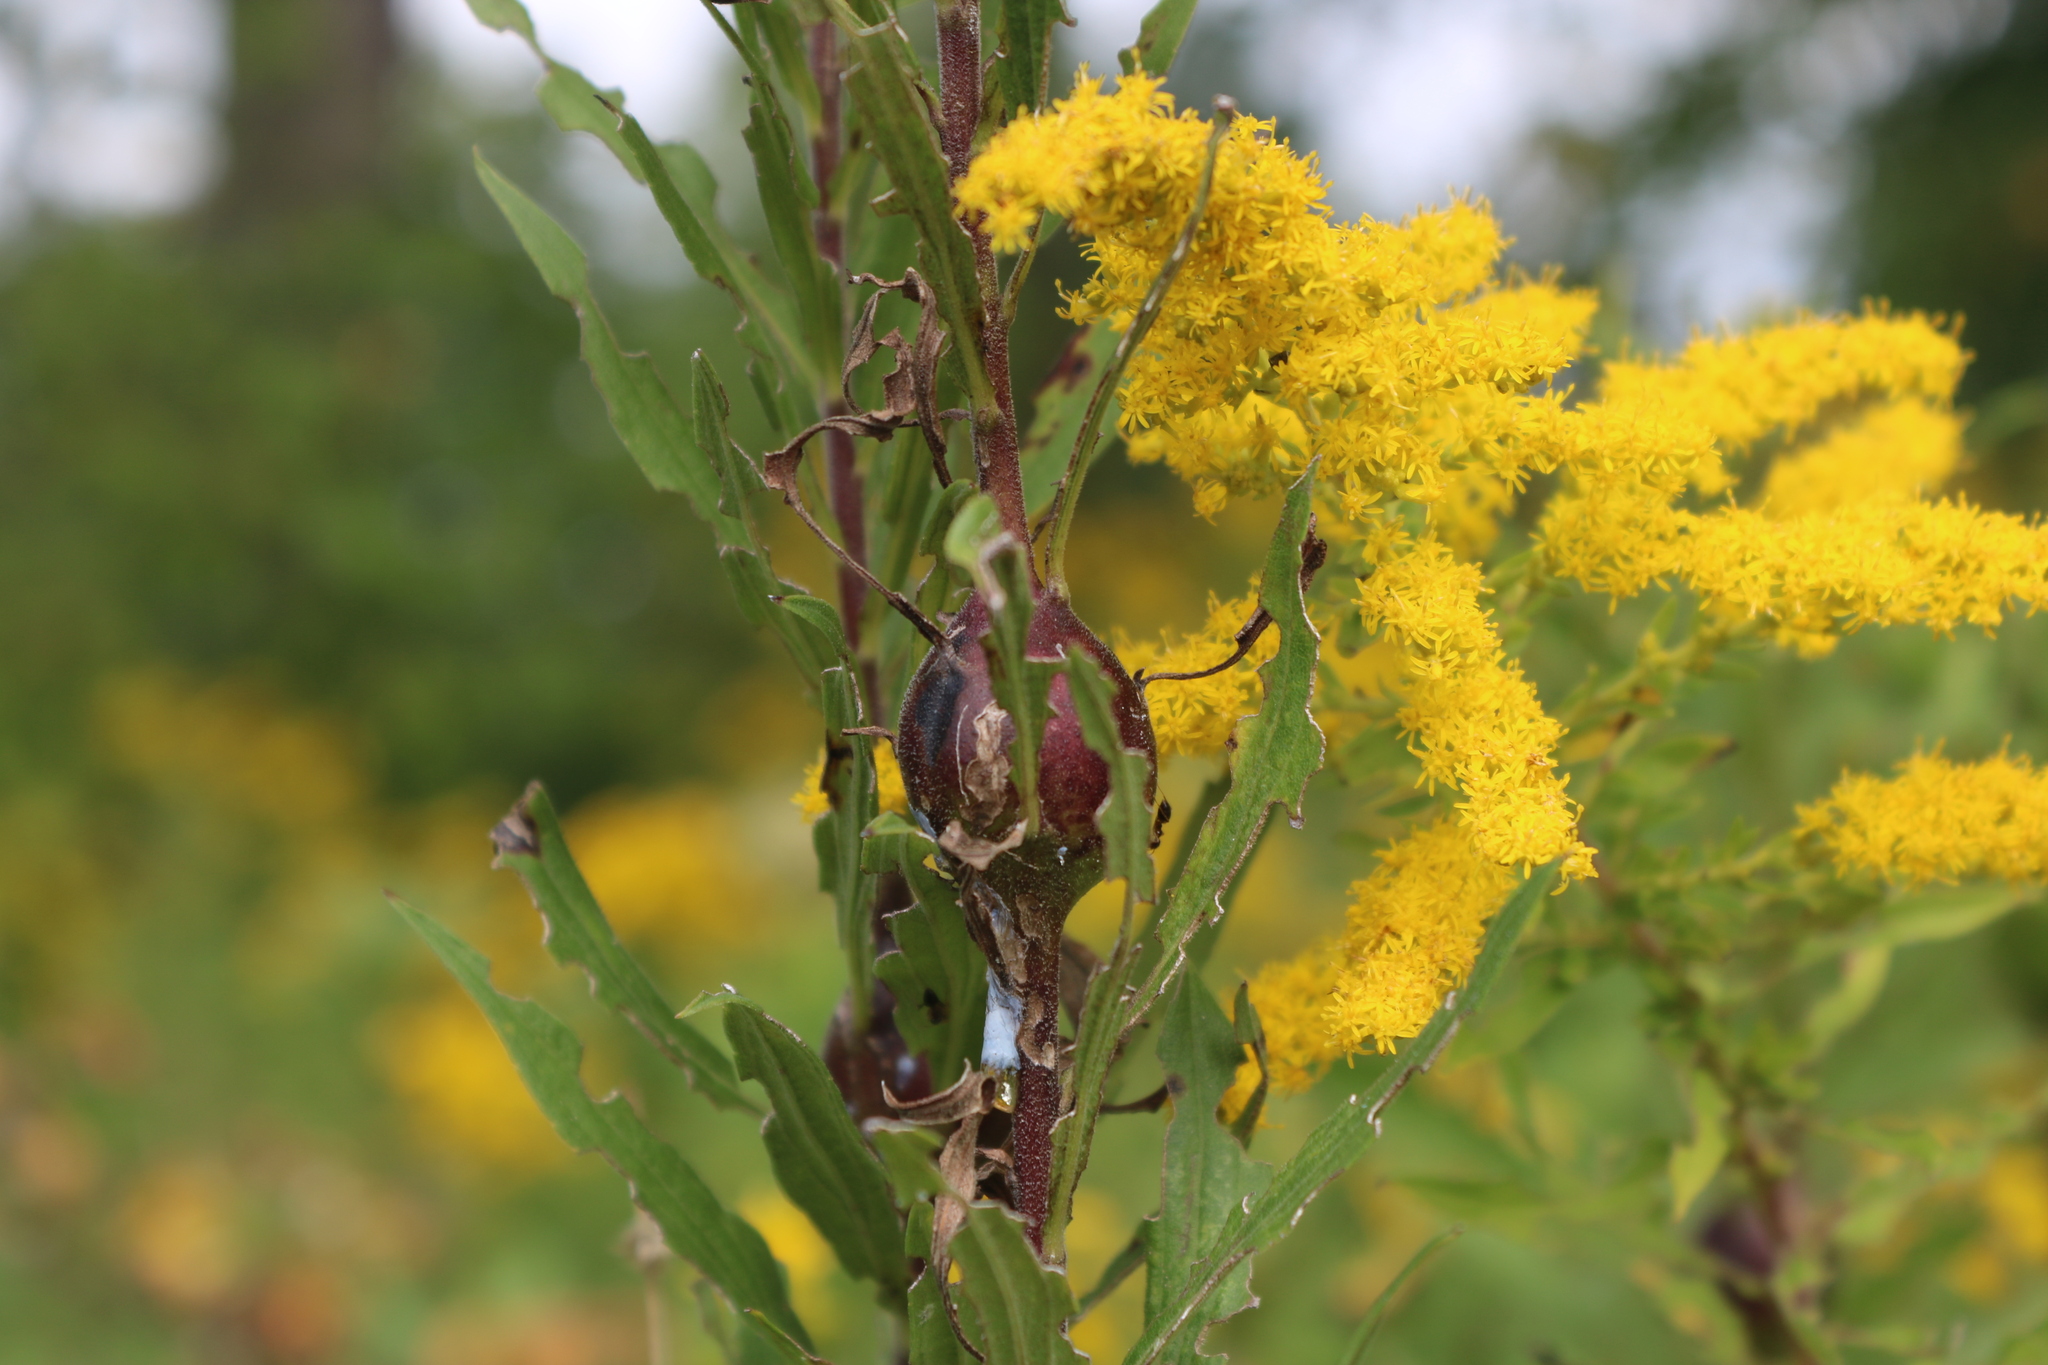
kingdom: Animalia
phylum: Arthropoda
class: Insecta
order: Diptera
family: Tephritidae
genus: Eurosta
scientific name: Eurosta solidaginis
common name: Goldenrod gall fly
